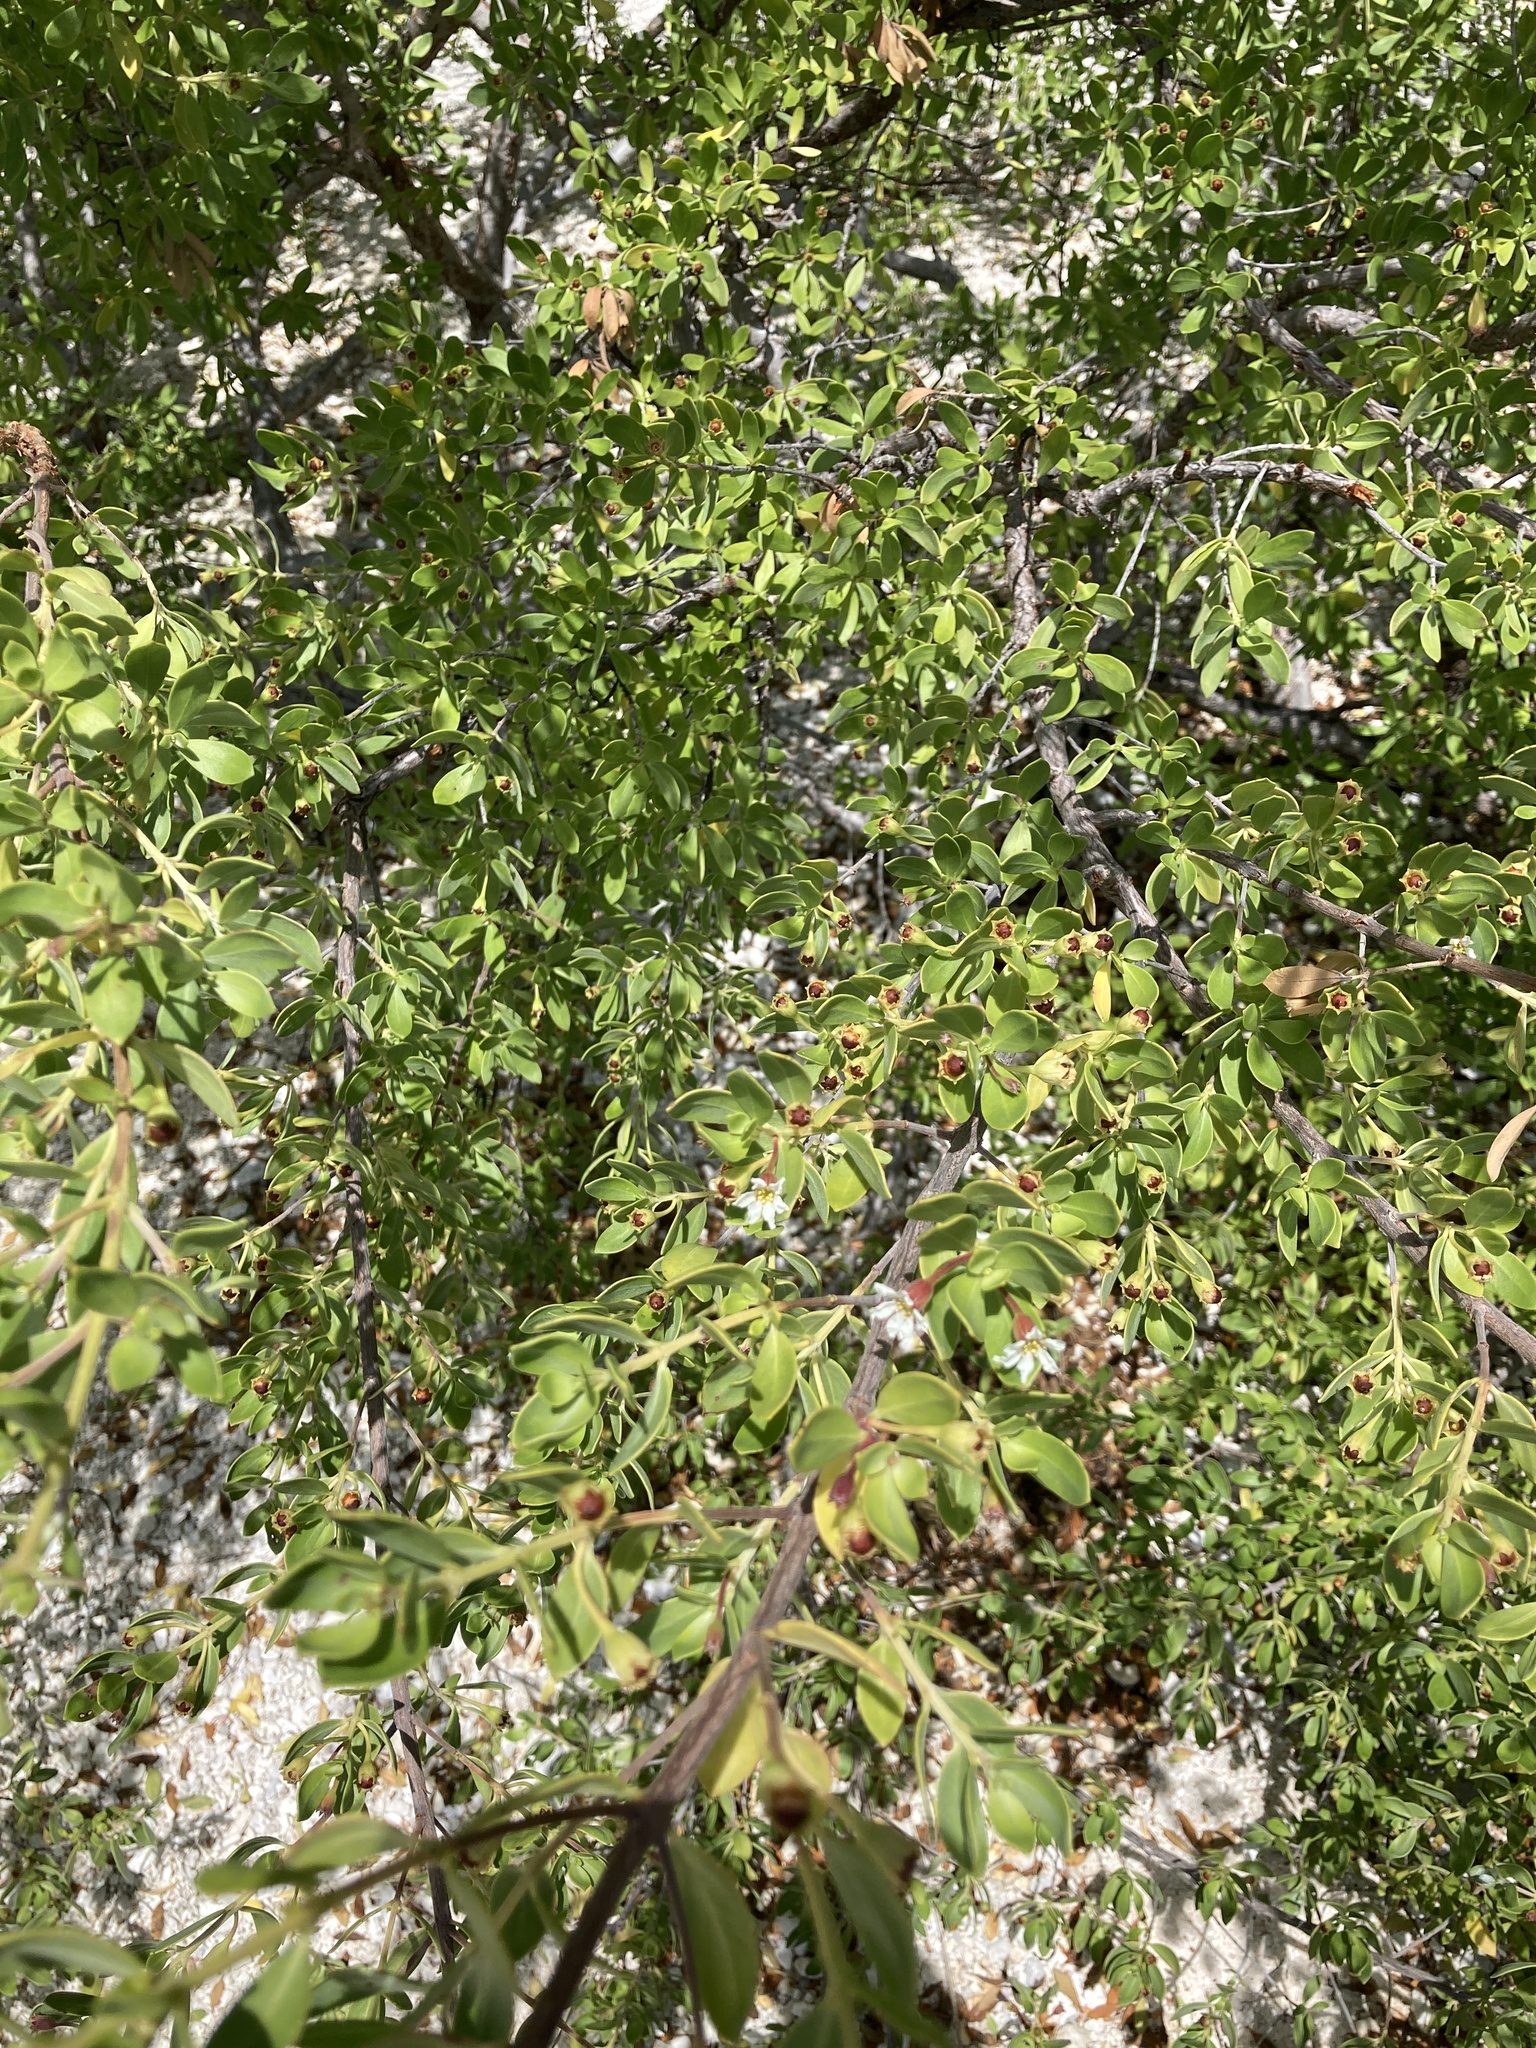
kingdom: Plantae
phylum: Tracheophyta
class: Magnoliopsida
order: Myrtales
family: Lythraceae
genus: Pemphis
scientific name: Pemphis acidula
